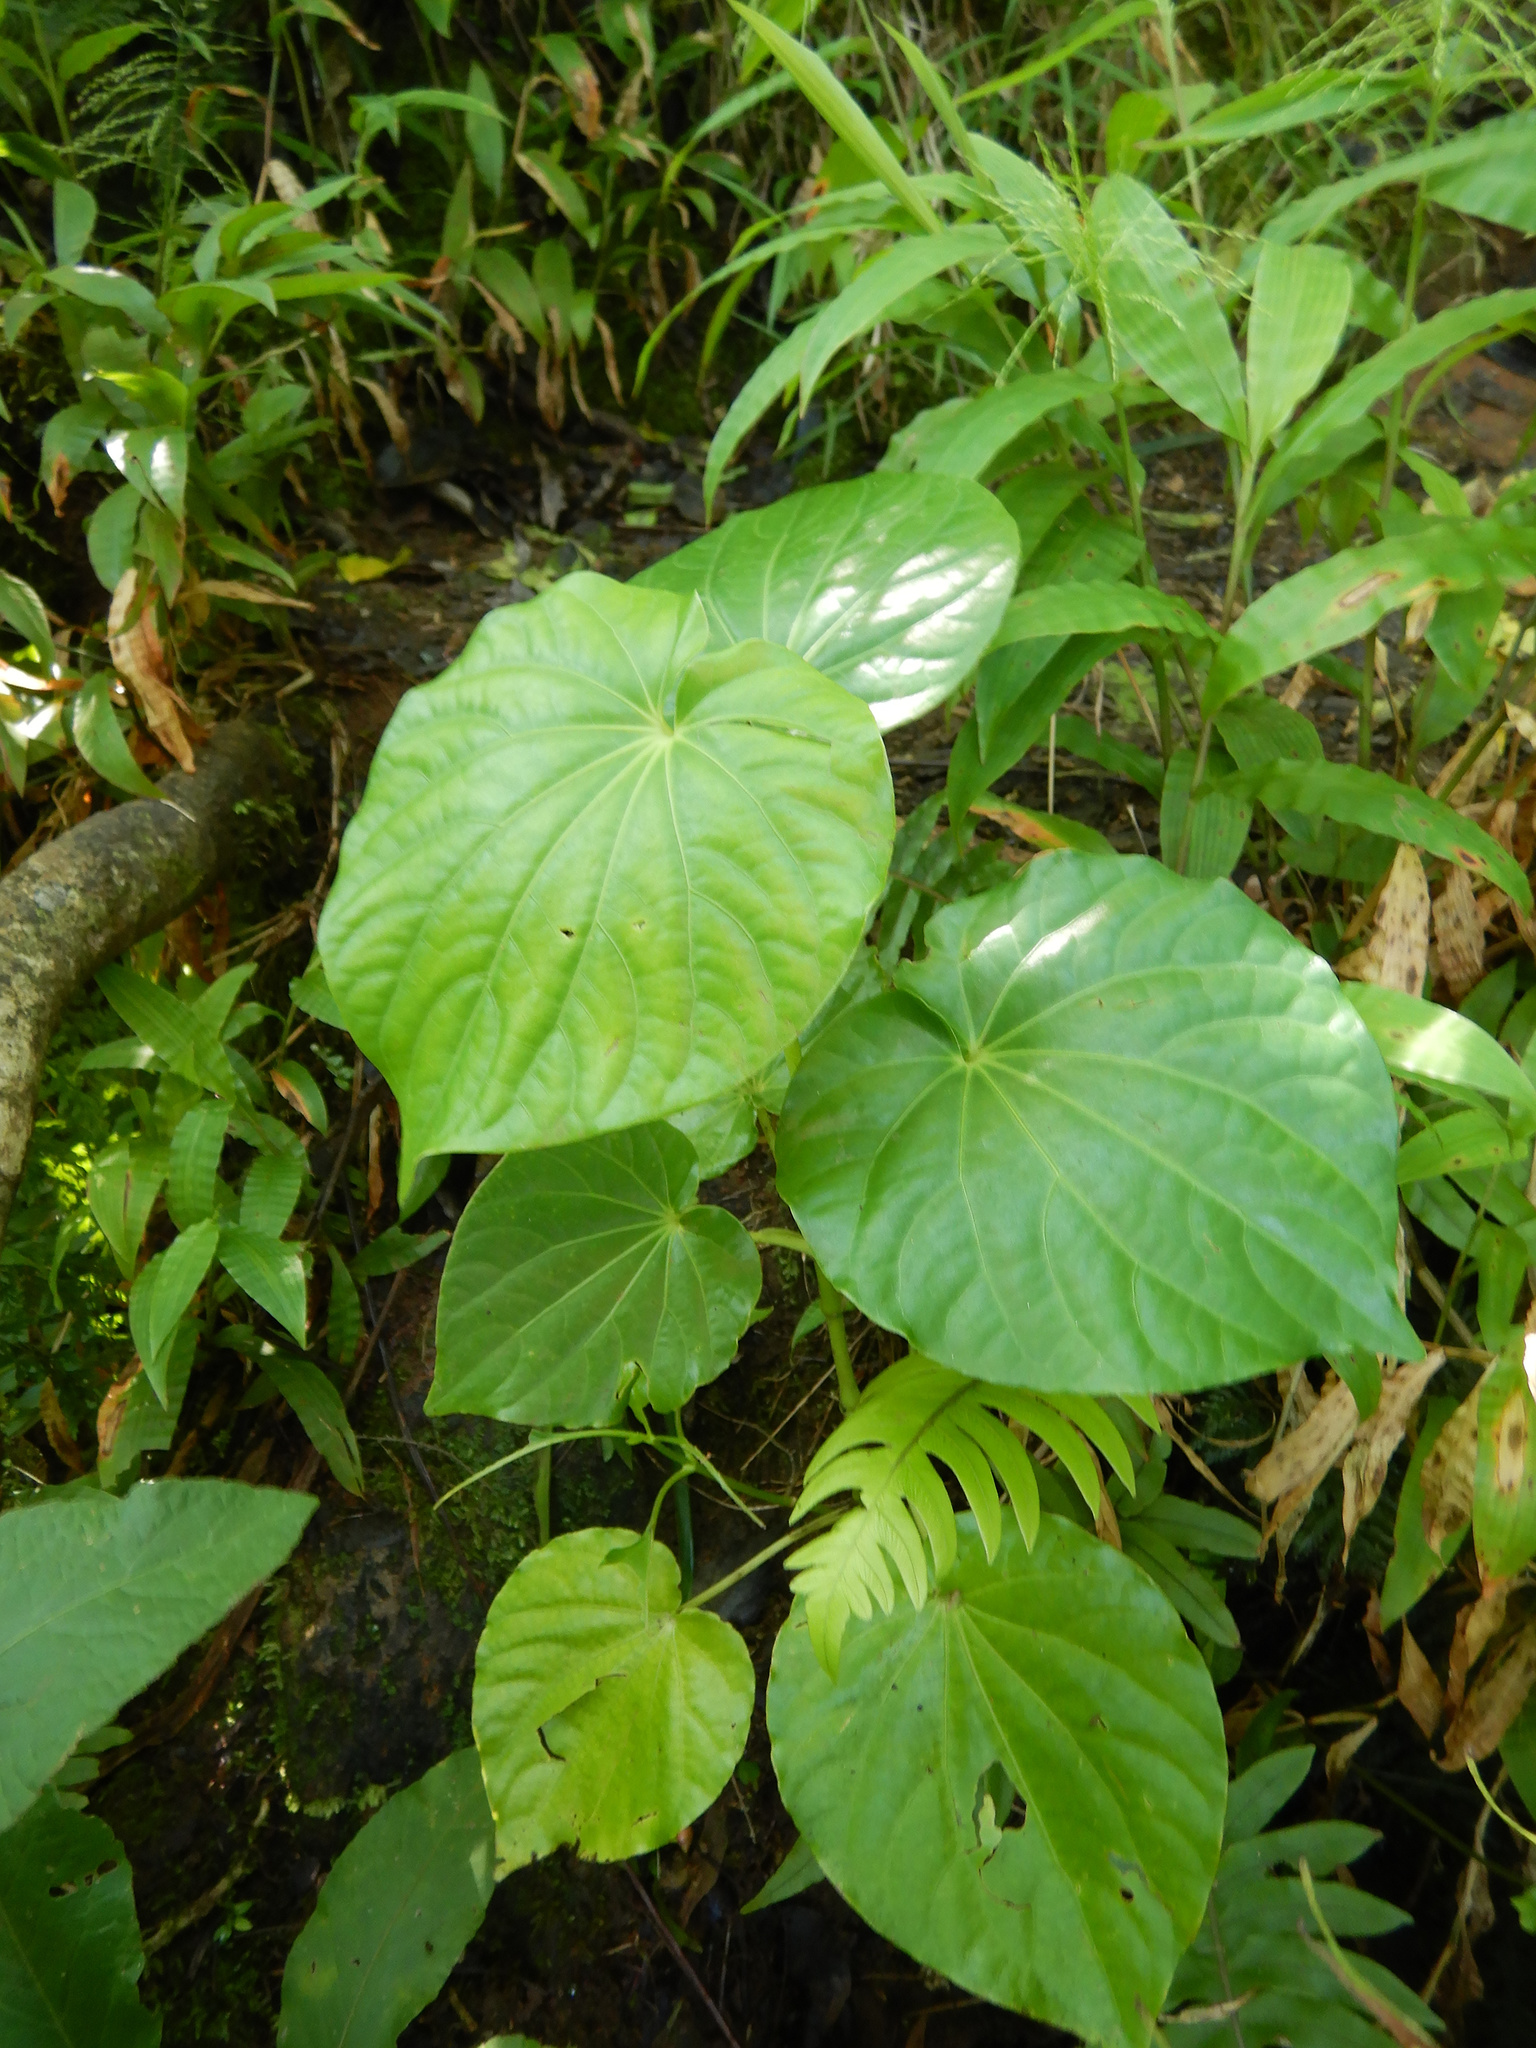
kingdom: Plantae
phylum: Tracheophyta
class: Magnoliopsida
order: Piperales
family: Piperaceae
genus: Piper
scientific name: Piper latifolium
